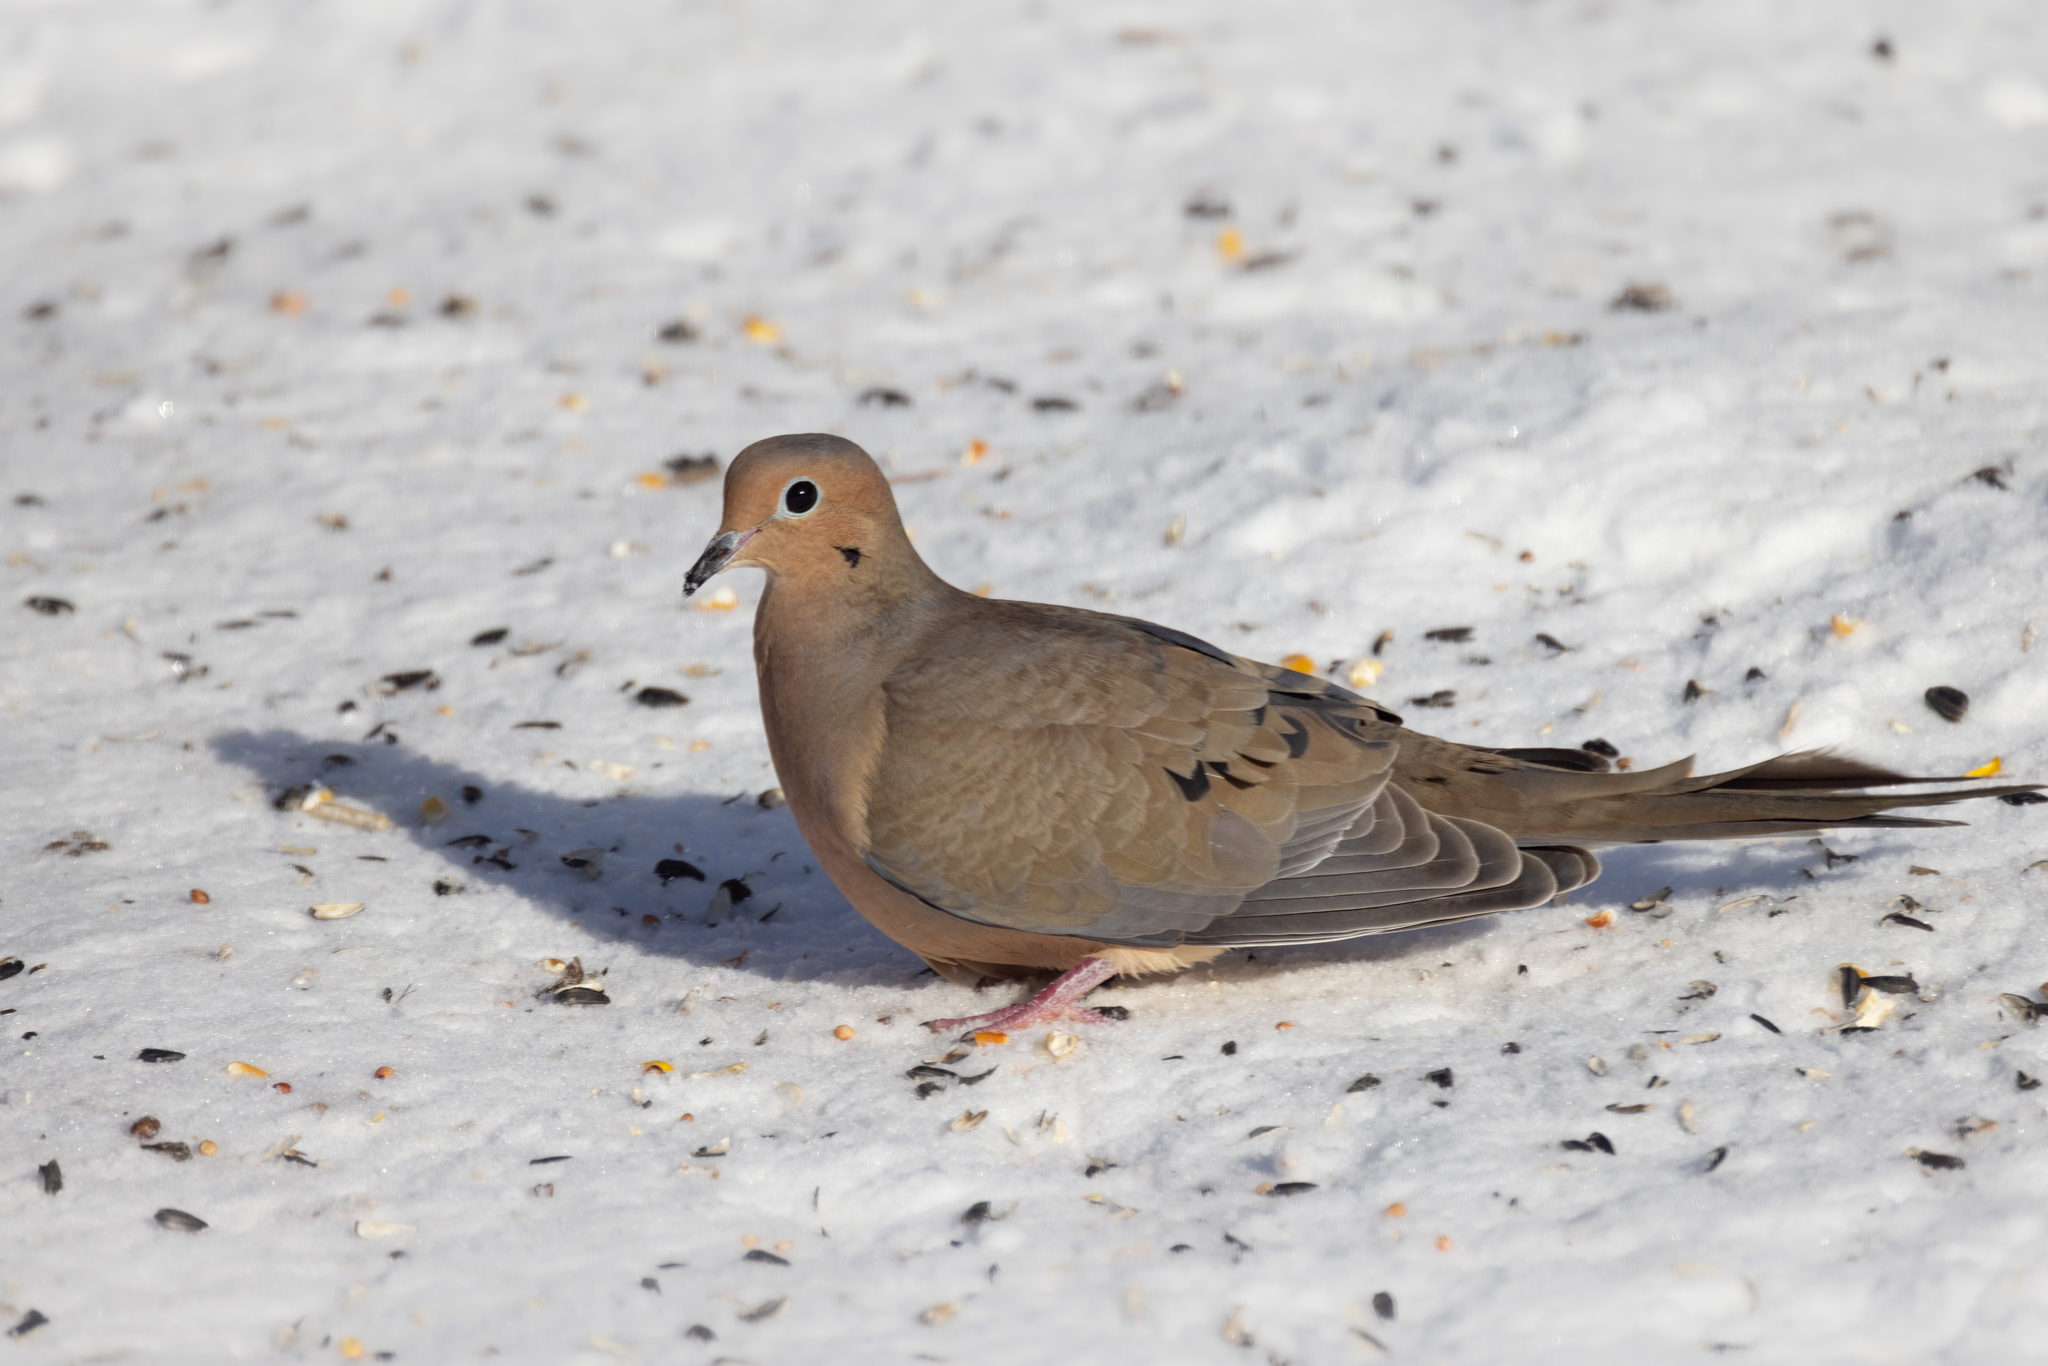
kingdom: Animalia
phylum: Chordata
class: Aves
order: Columbiformes
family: Columbidae
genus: Zenaida
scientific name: Zenaida macroura
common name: Mourning dove
